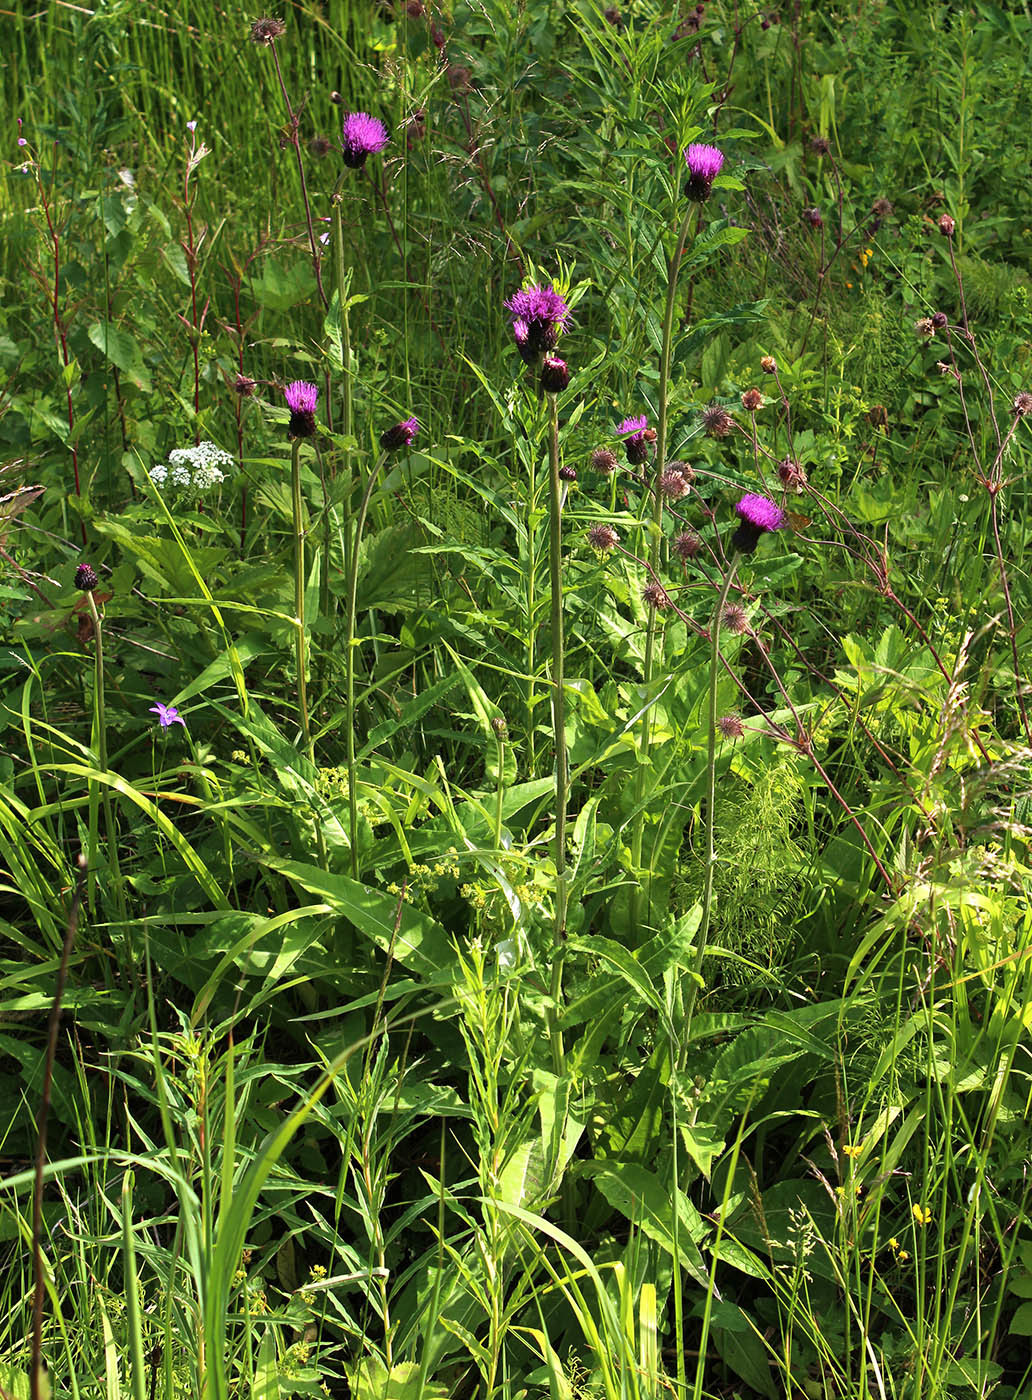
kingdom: Plantae
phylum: Tracheophyta
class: Magnoliopsida
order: Asterales
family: Asteraceae
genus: Cirsium
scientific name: Cirsium heterophyllum
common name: Melancholy thistle
